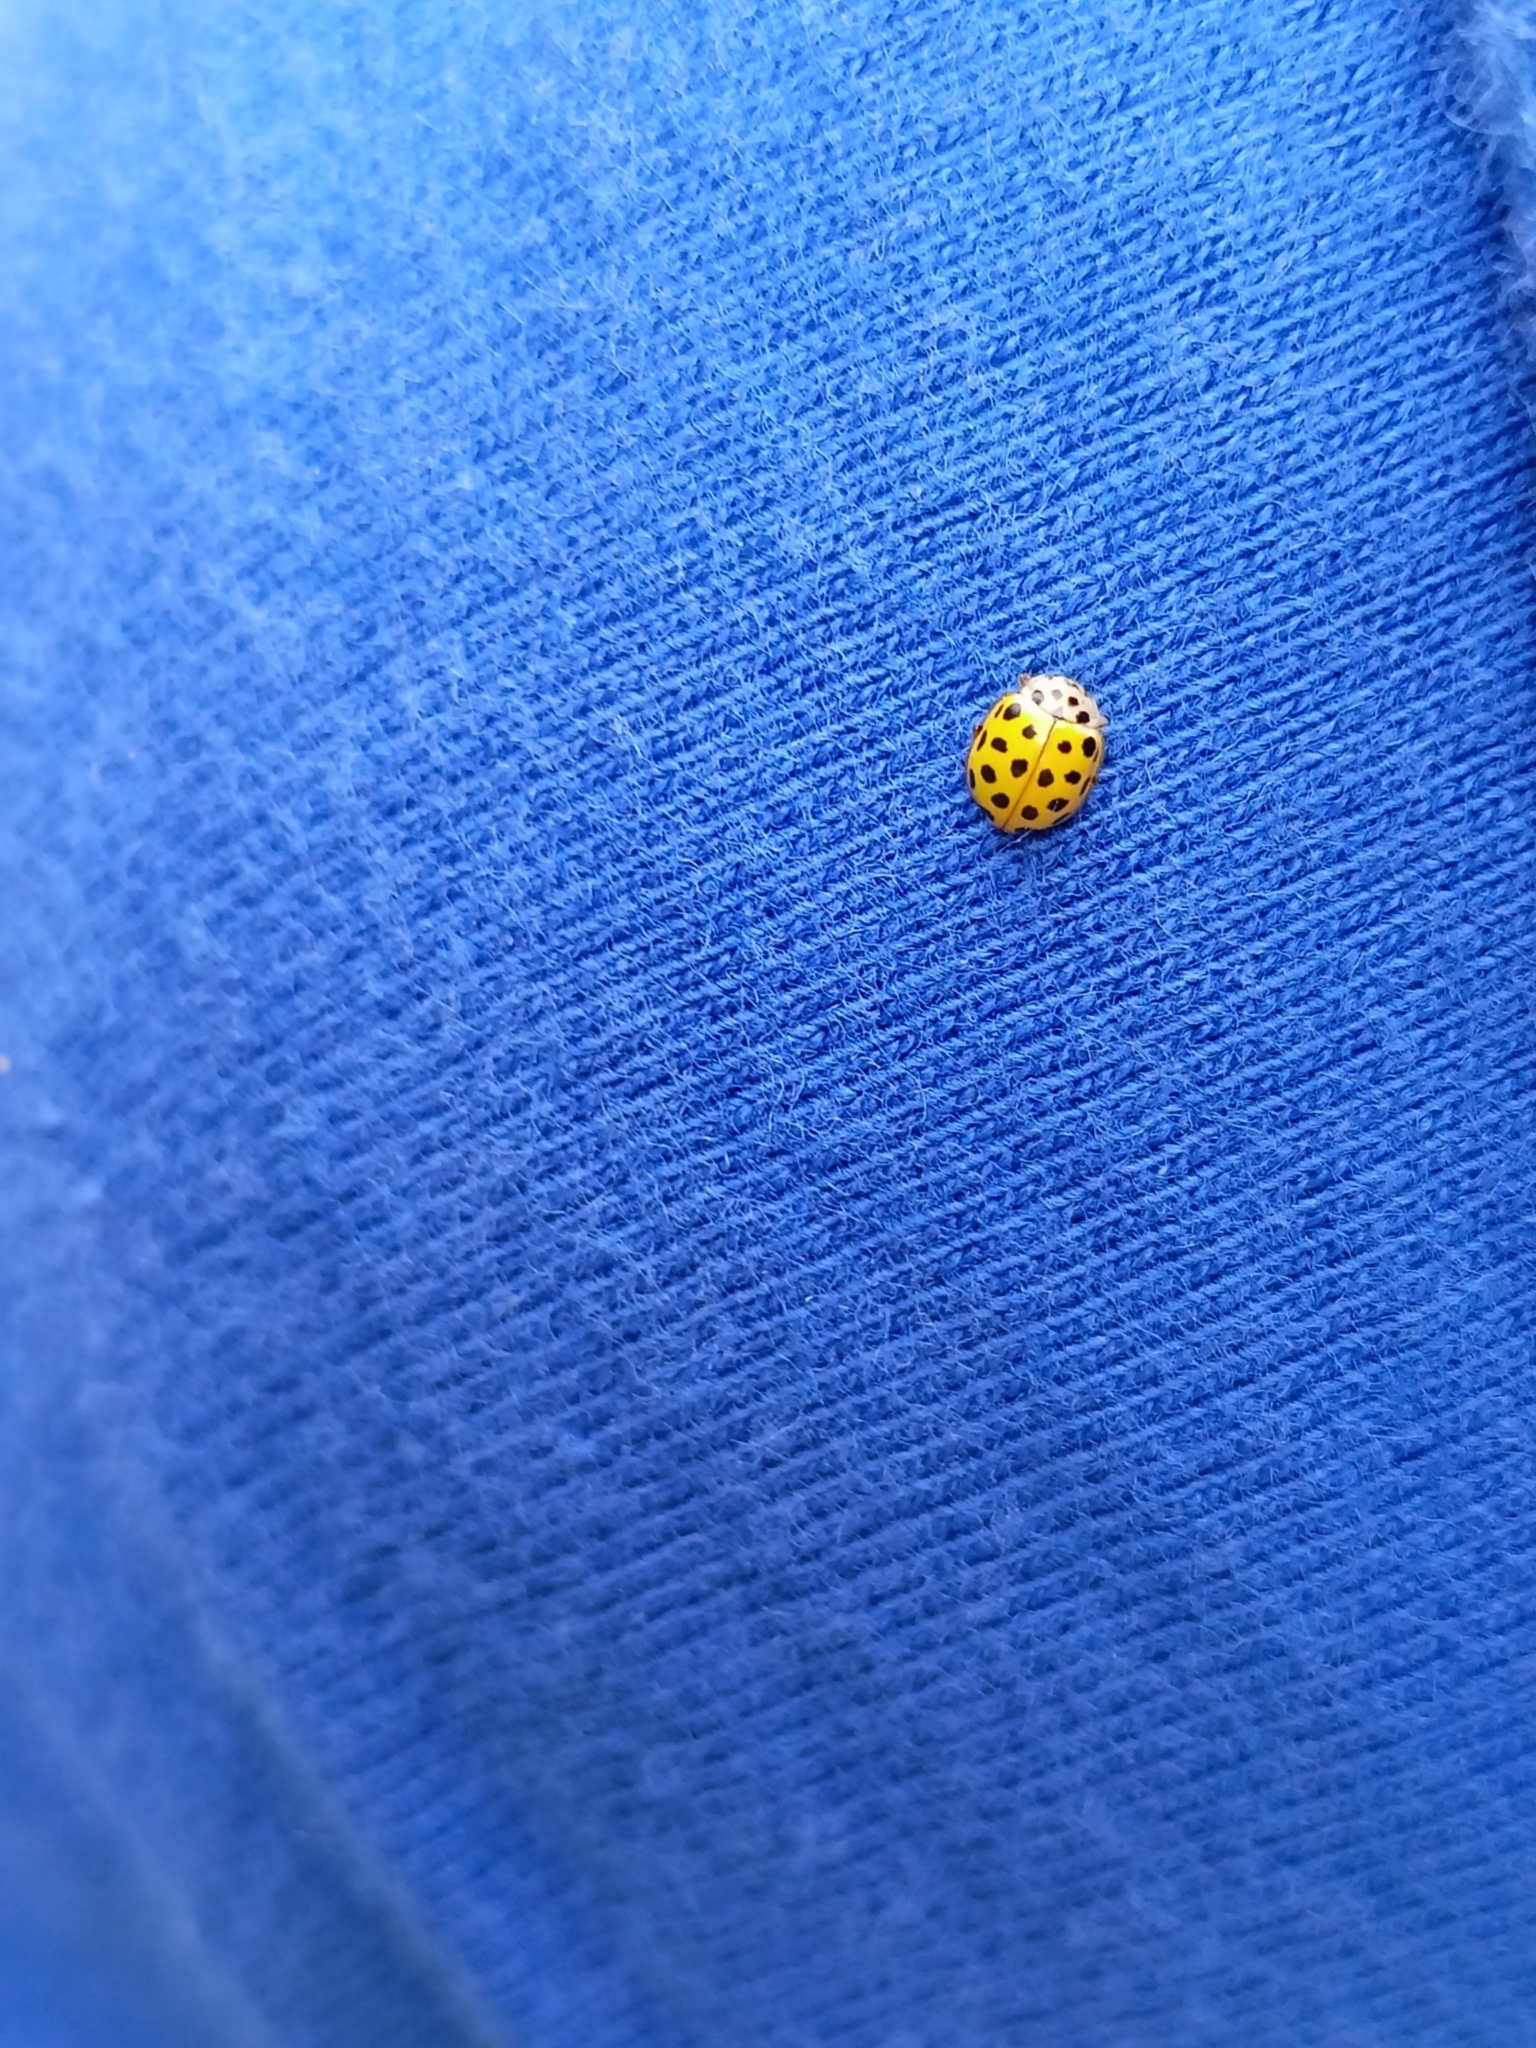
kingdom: Animalia
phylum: Arthropoda
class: Insecta
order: Coleoptera
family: Coccinellidae
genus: Psyllobora
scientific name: Psyllobora vigintiduopunctata
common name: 22-spot ladybird
